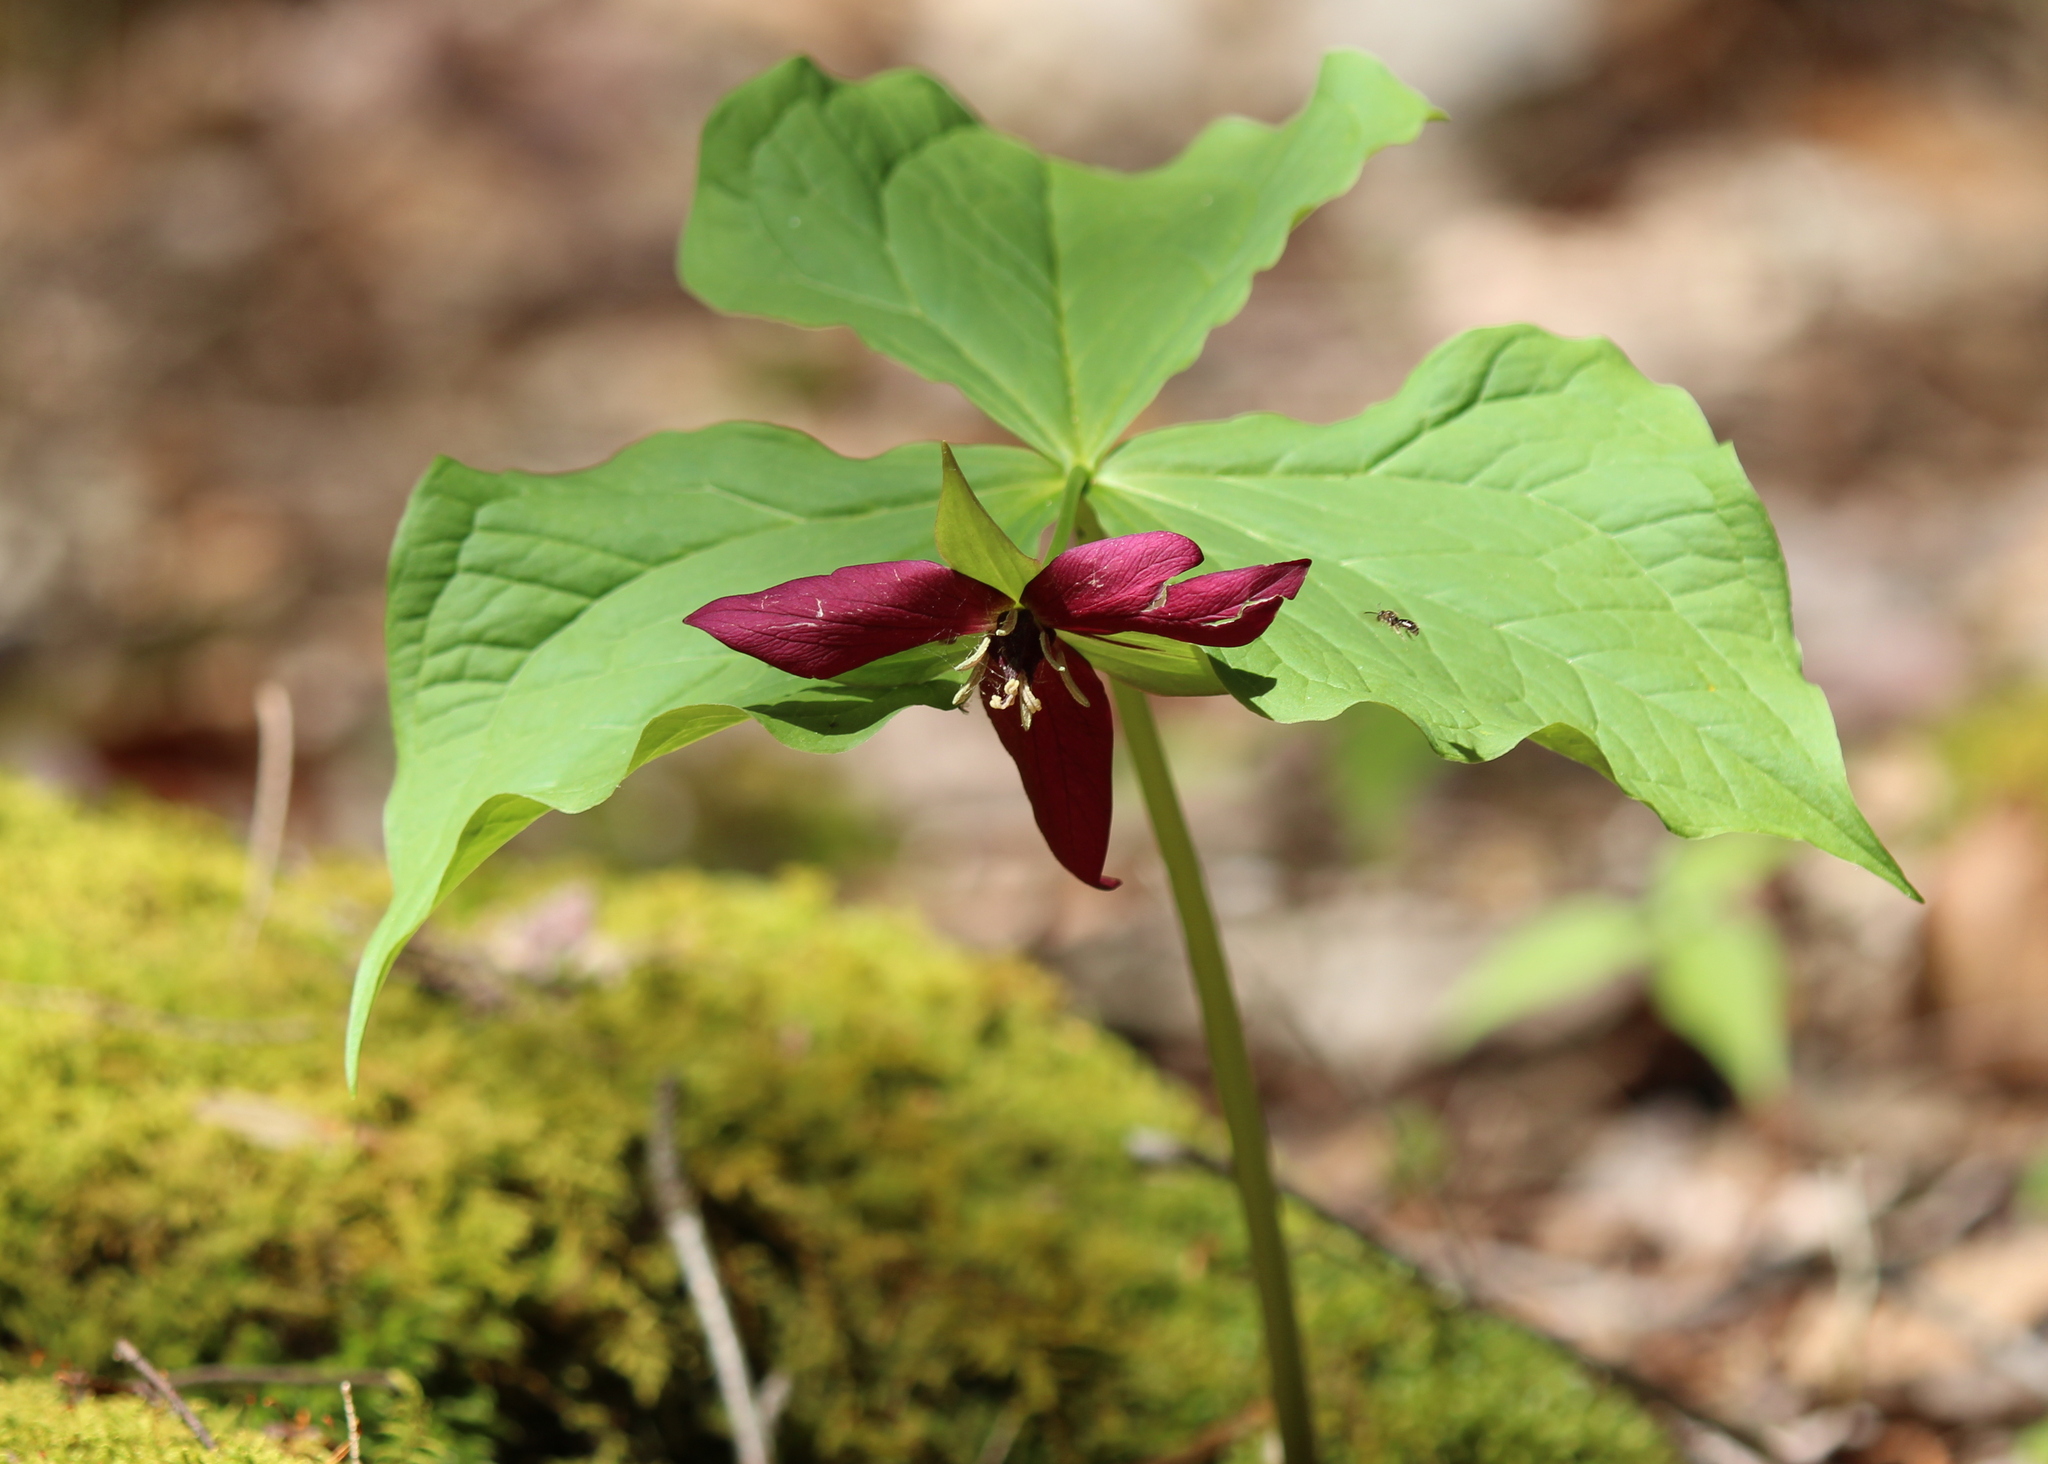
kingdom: Plantae
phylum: Tracheophyta
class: Liliopsida
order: Liliales
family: Melanthiaceae
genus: Trillium
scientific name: Trillium erectum
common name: Purple trillium
